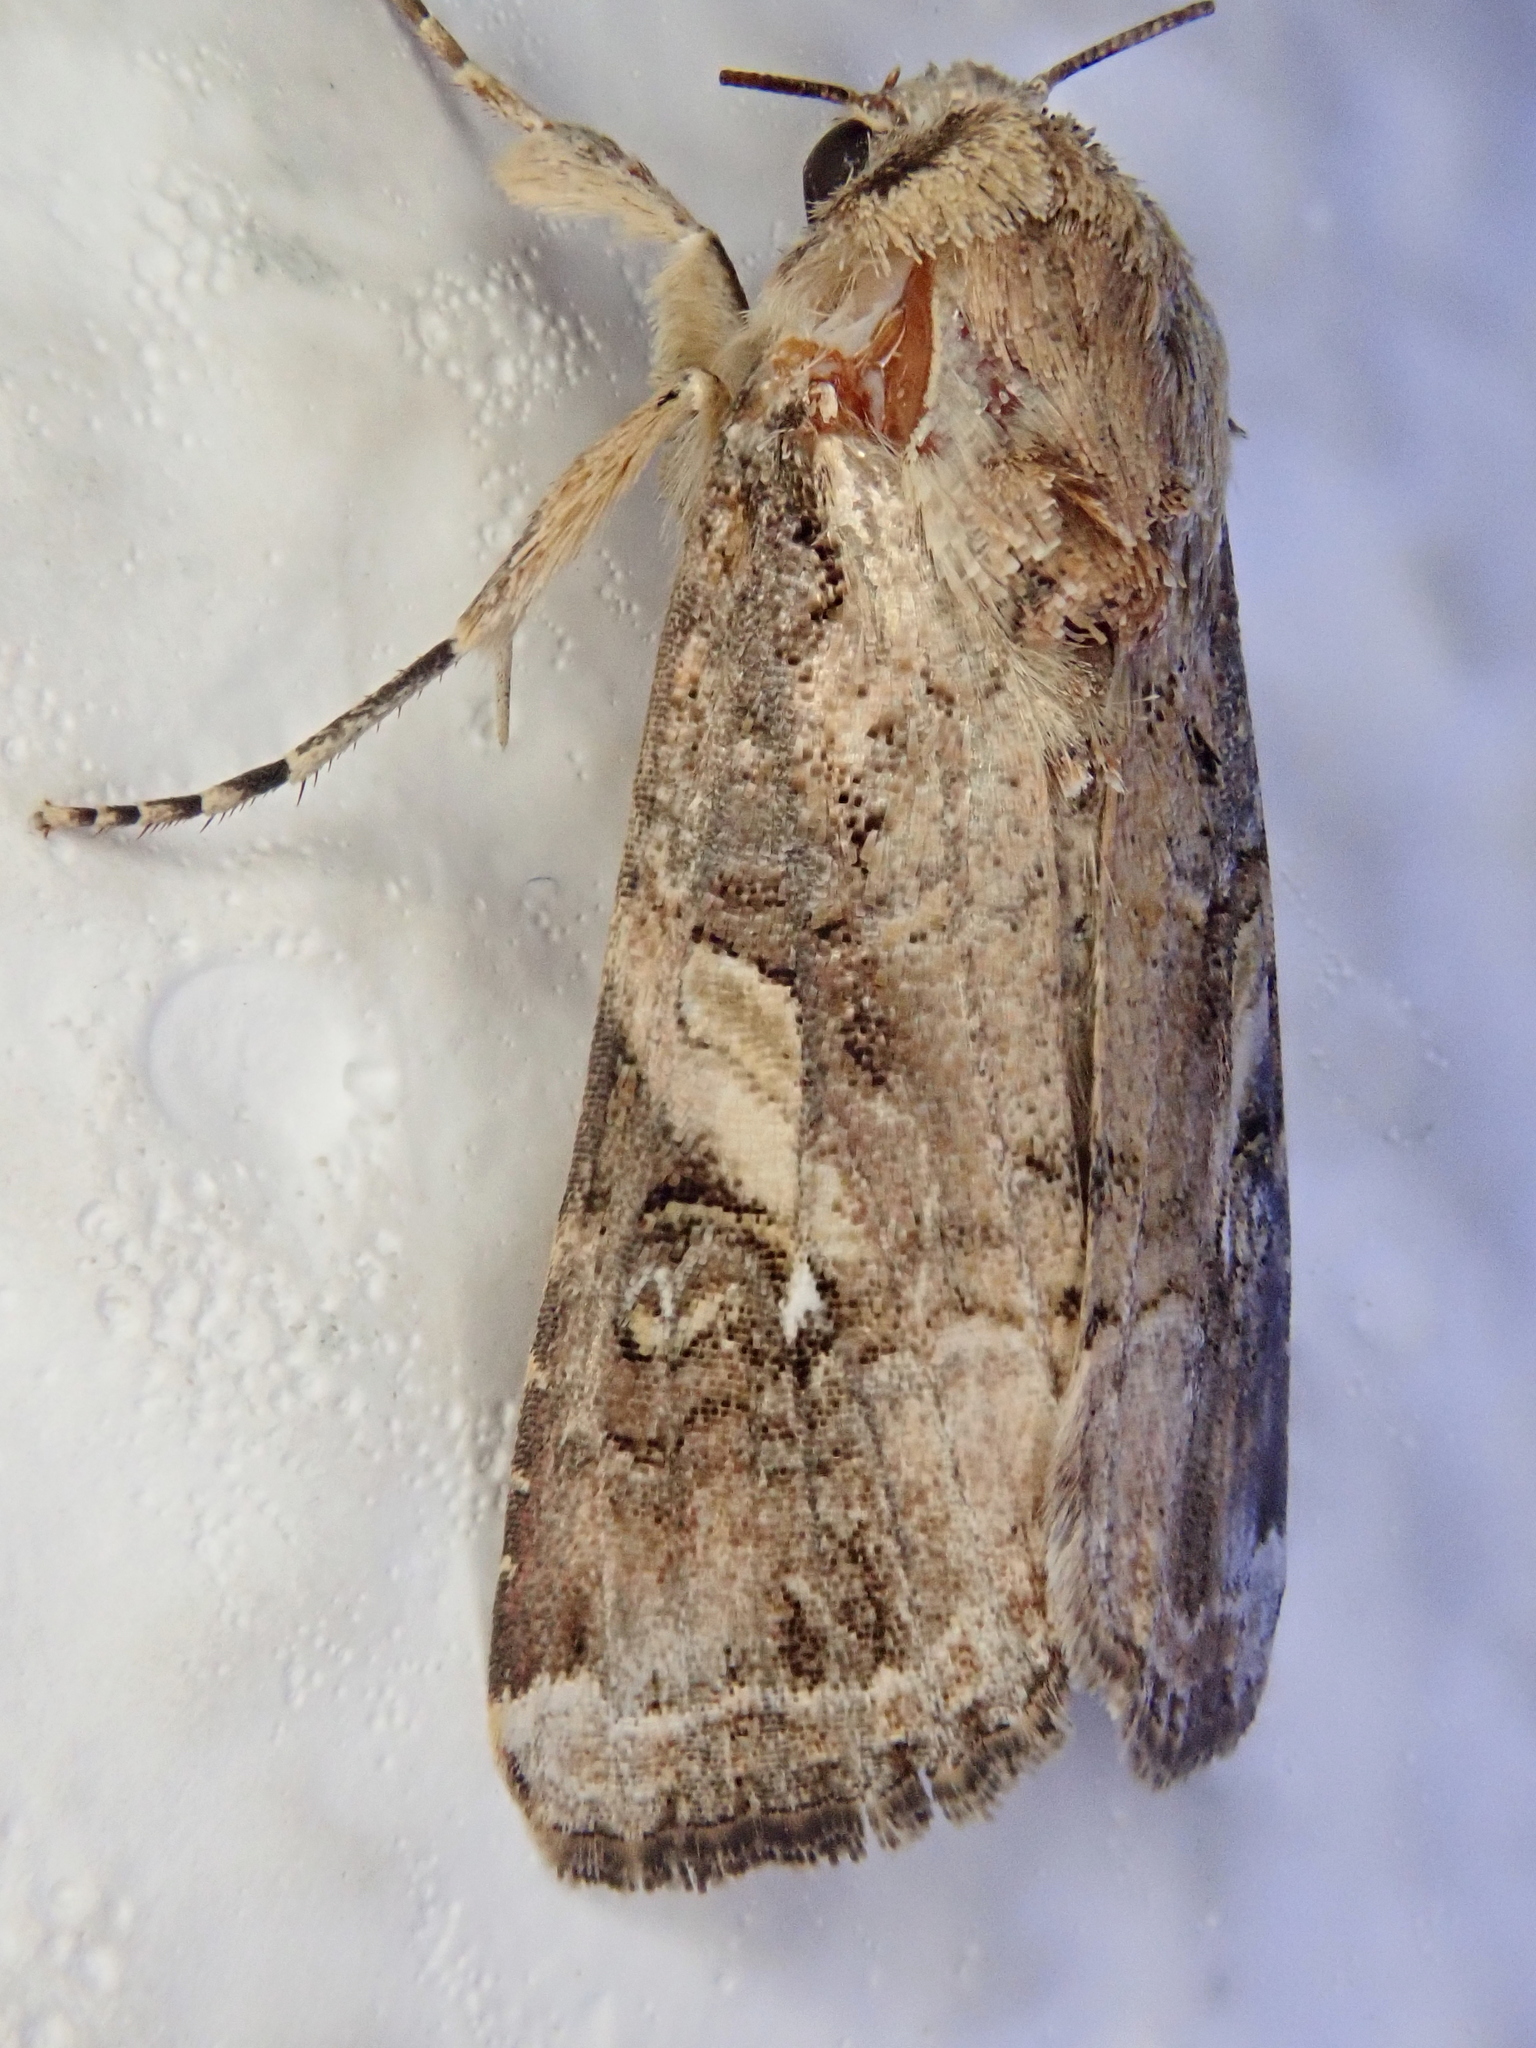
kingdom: Animalia
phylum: Arthropoda
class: Insecta
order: Lepidoptera
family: Noctuidae
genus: Spodoptera
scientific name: Spodoptera frugiperda
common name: Fall armyworm
